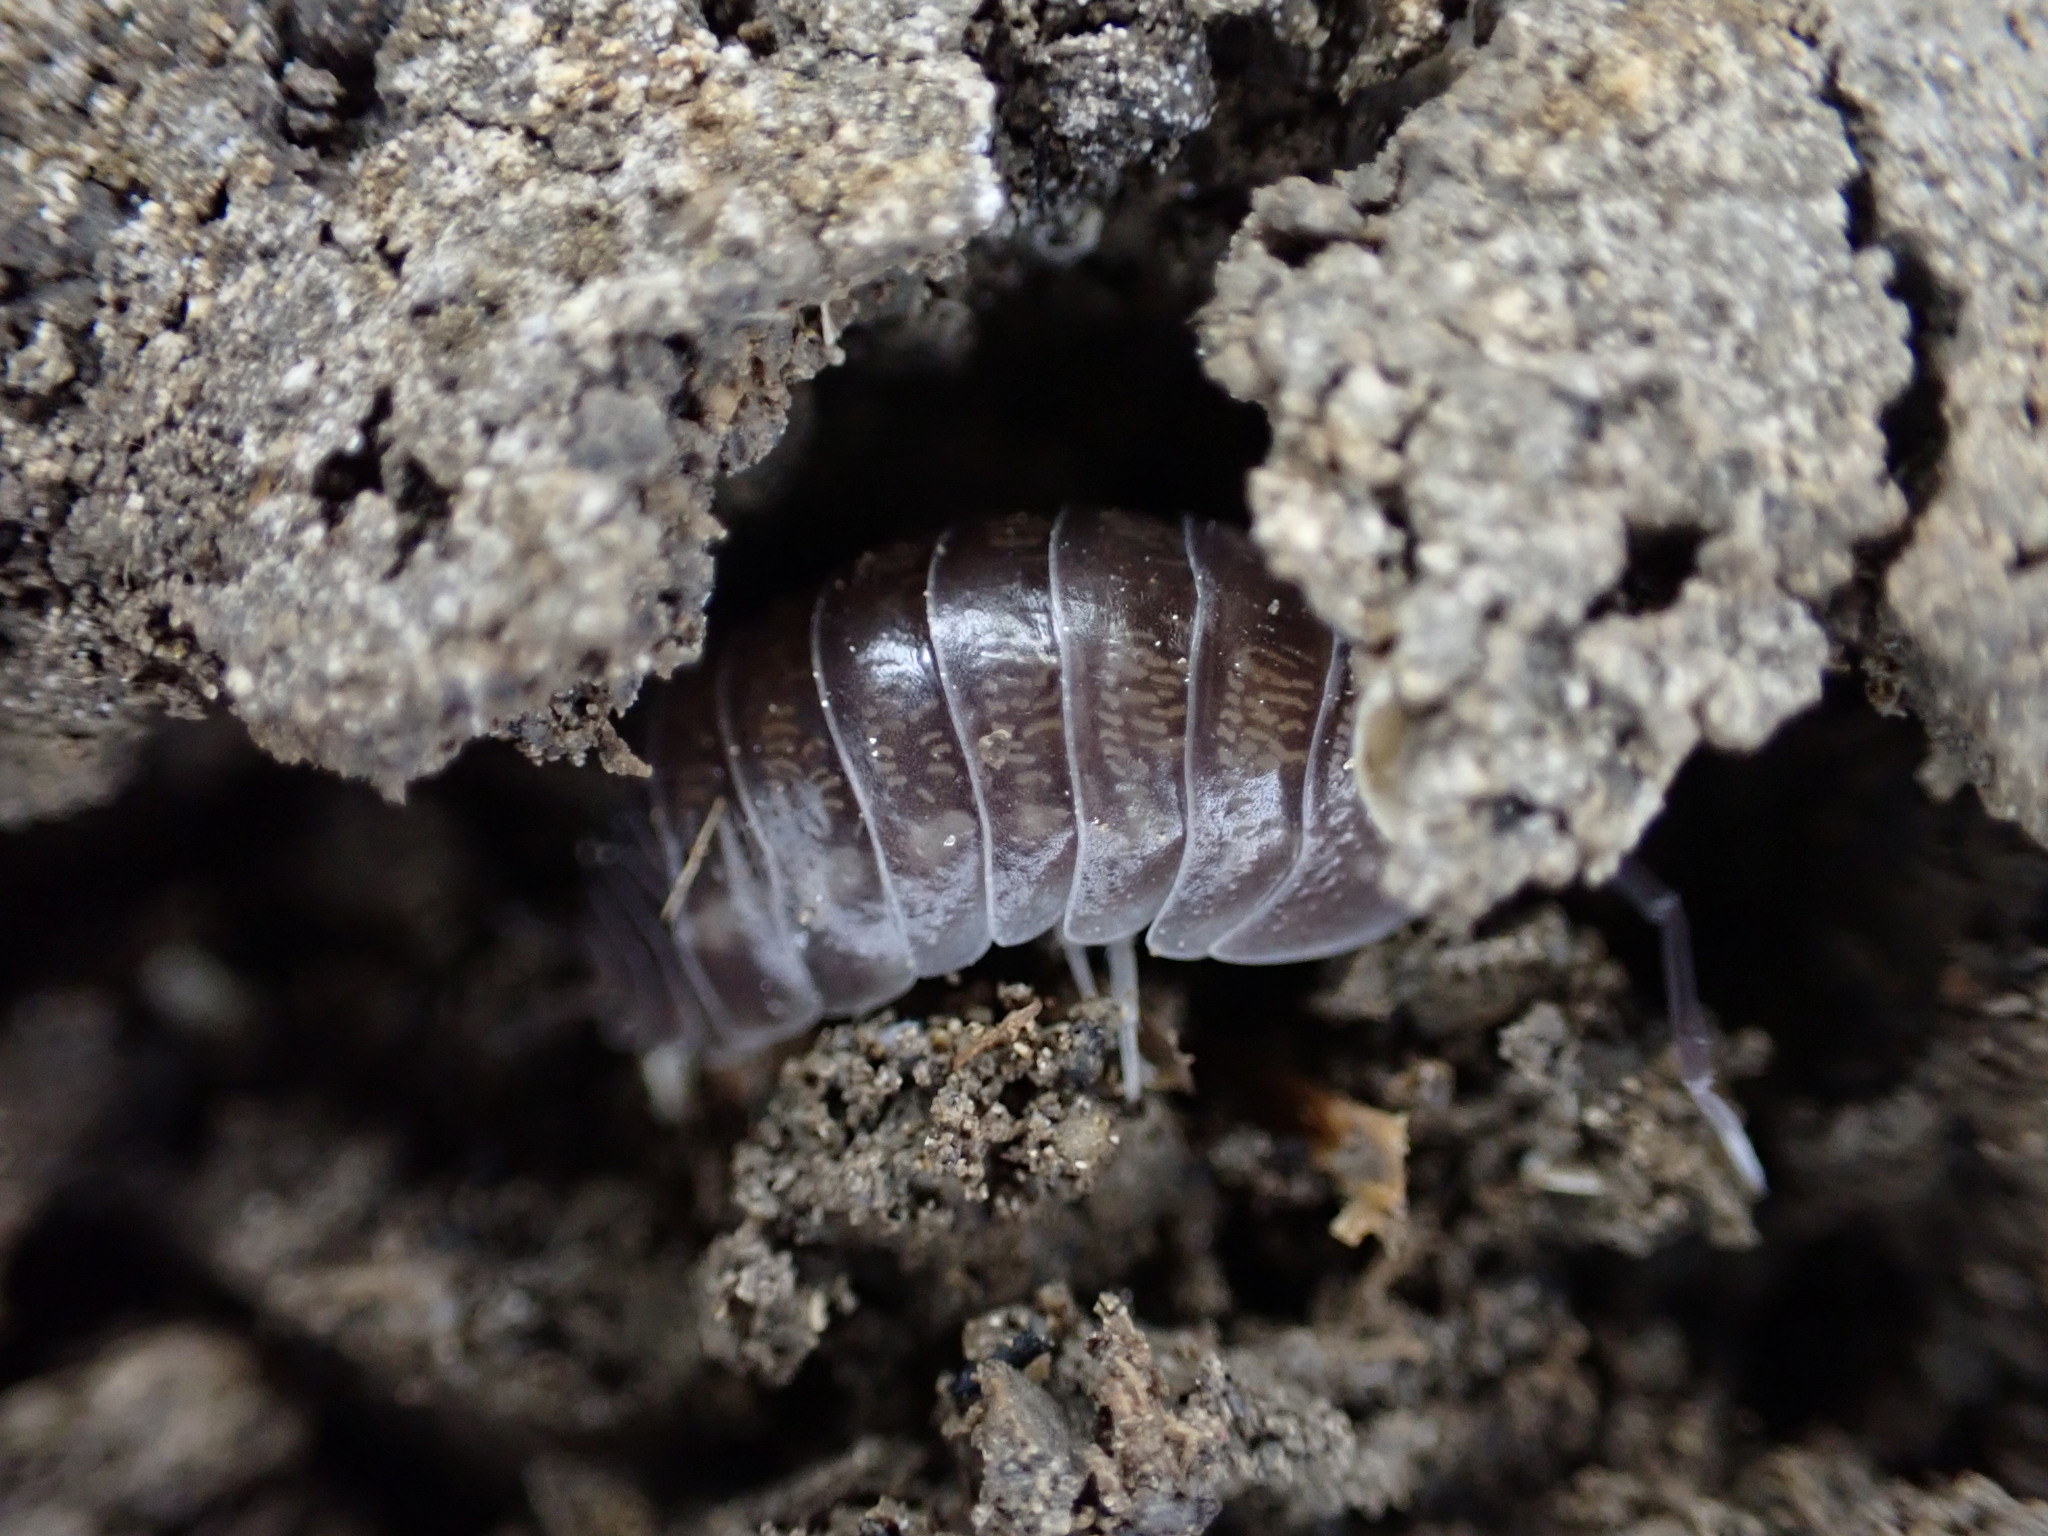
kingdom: Animalia
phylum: Arthropoda
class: Malacostraca
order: Isopoda
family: Cylisticidae
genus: Cylisticus
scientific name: Cylisticus convexus
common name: Curly woodlouse
